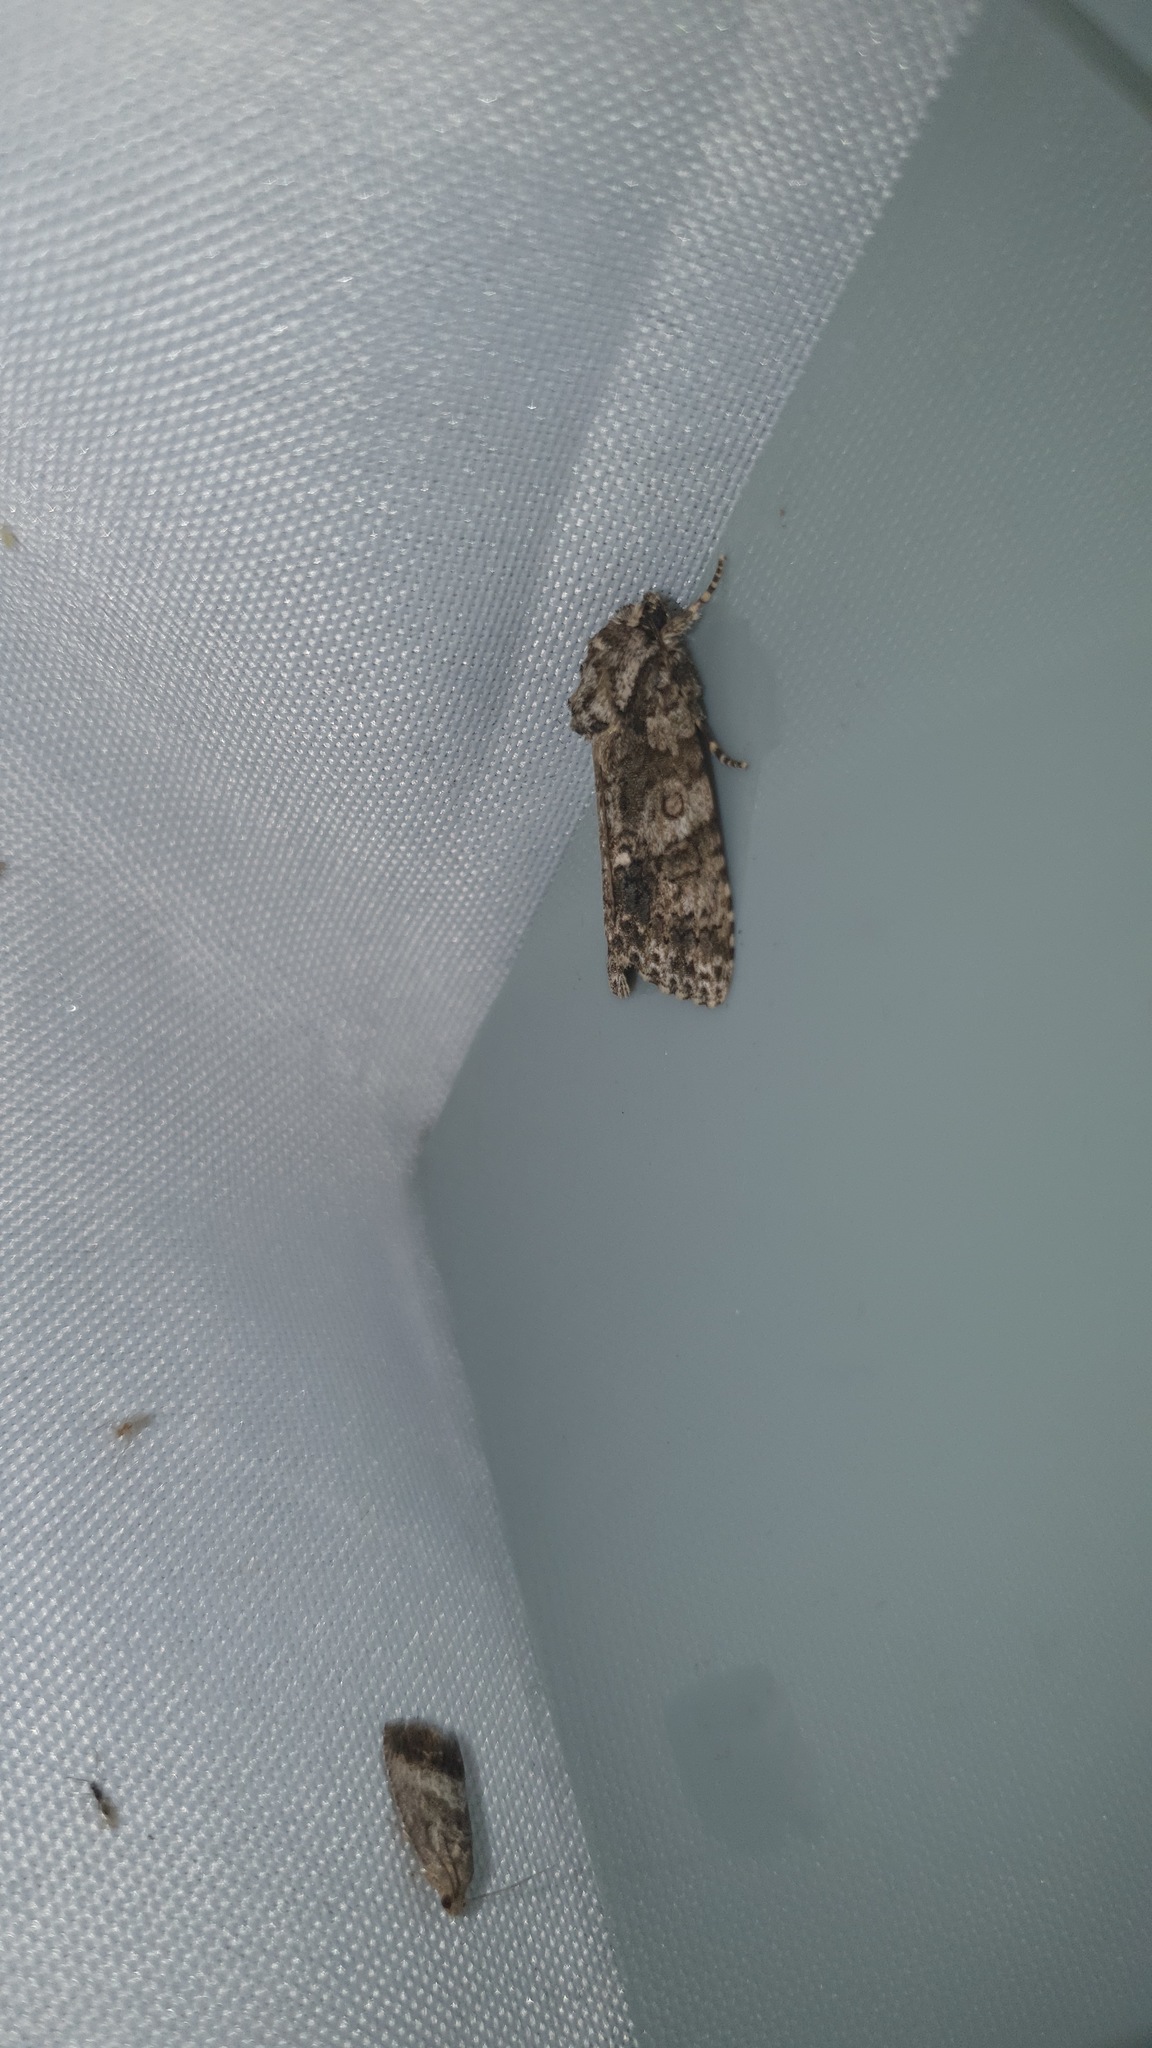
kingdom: Animalia
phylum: Arthropoda
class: Insecta
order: Lepidoptera
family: Noctuidae
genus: Acronicta
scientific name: Acronicta rumicis
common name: Knot grass
